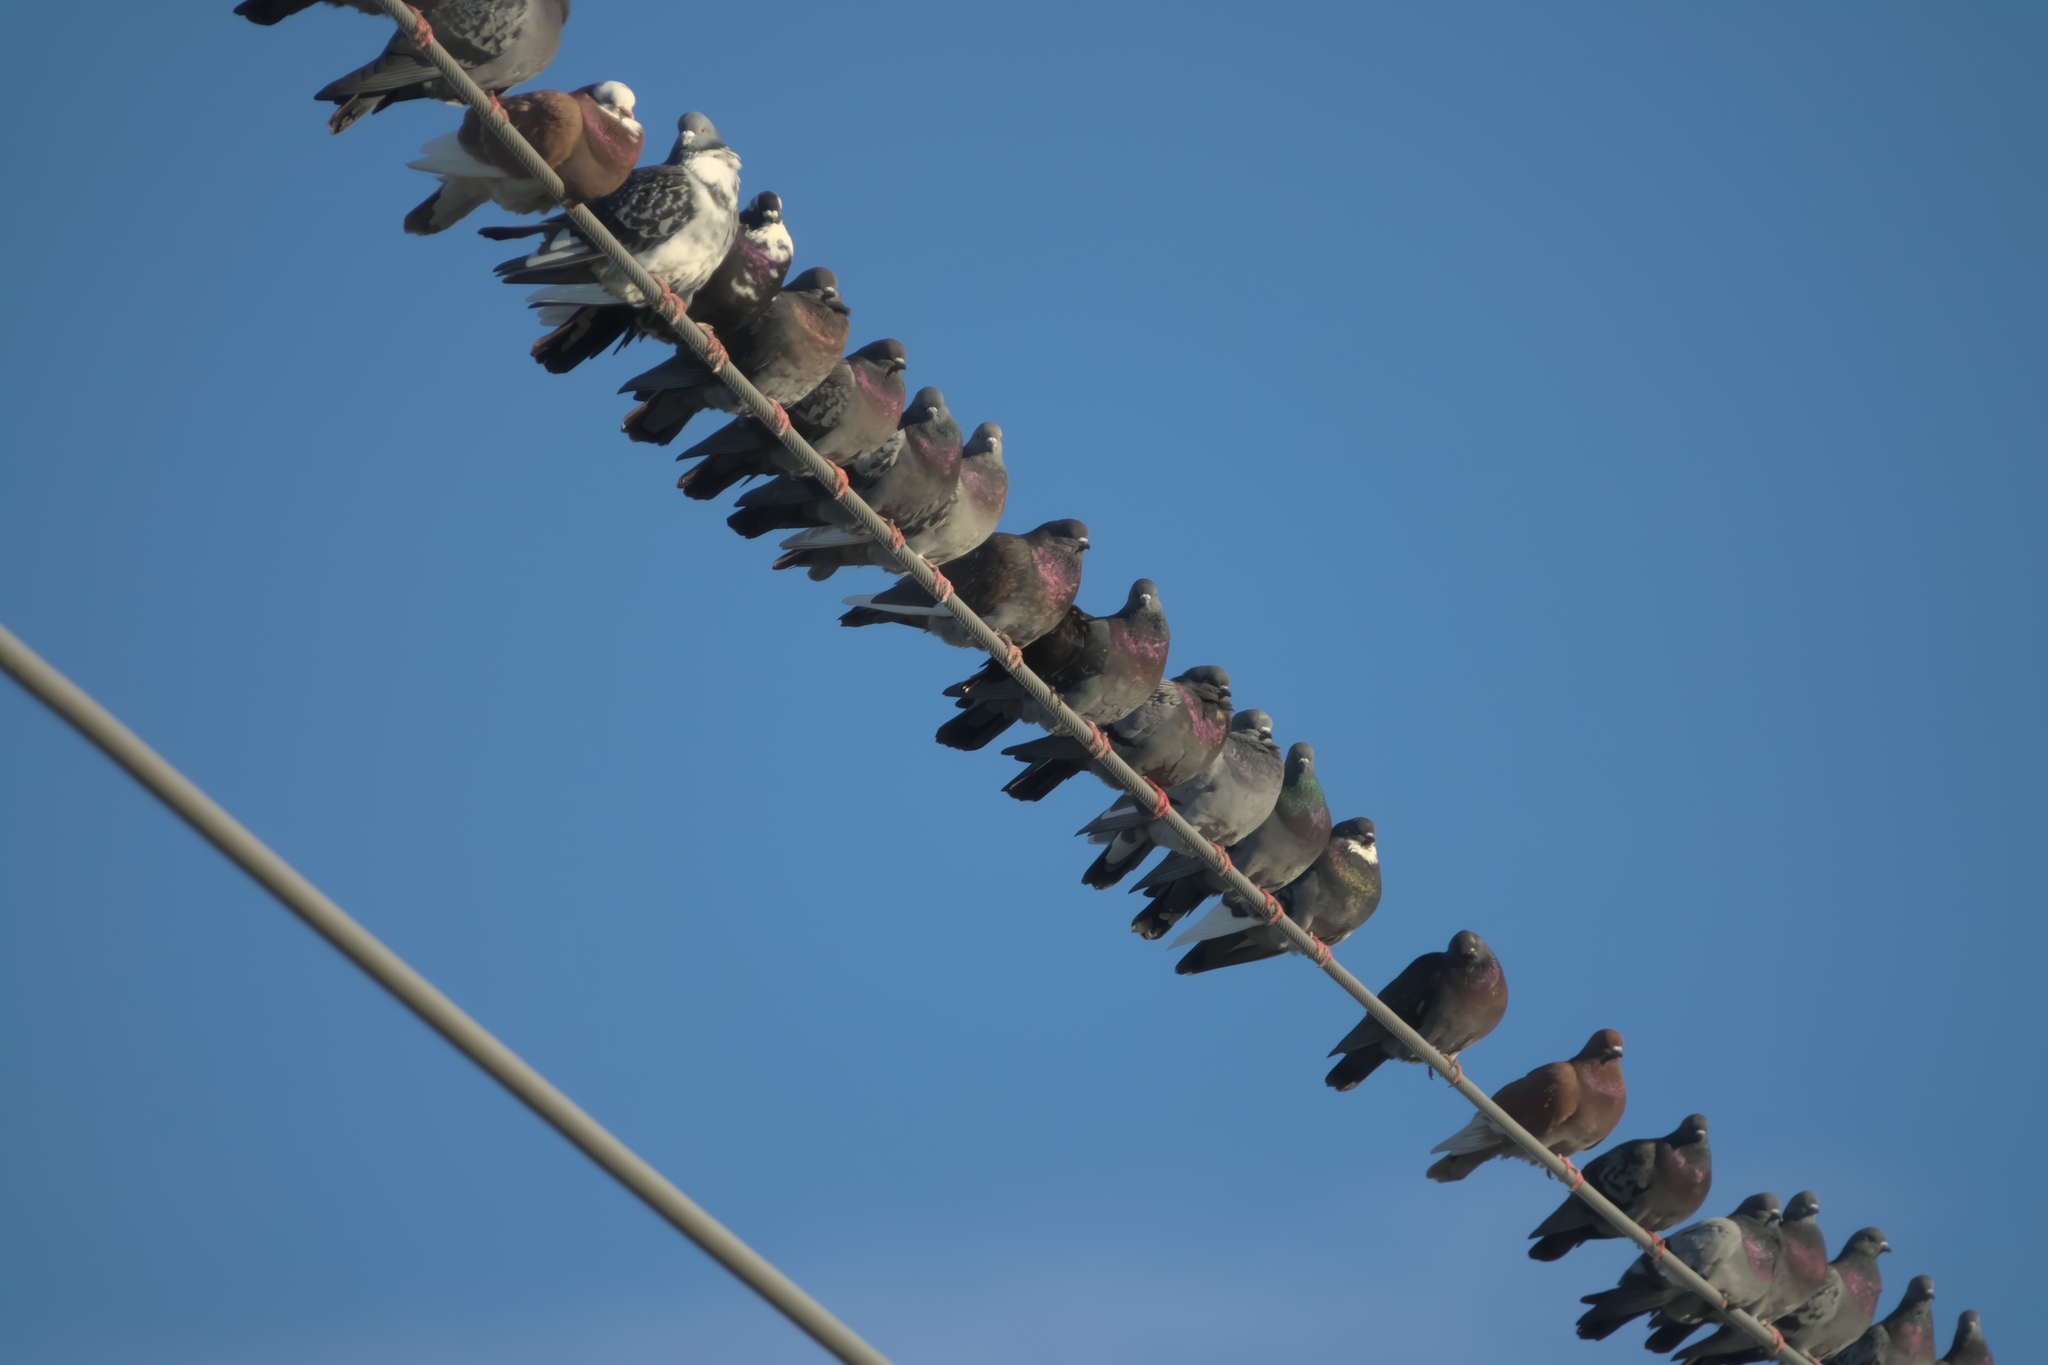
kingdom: Animalia
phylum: Chordata
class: Aves
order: Columbiformes
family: Columbidae
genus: Columba
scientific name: Columba livia
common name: Rock pigeon
